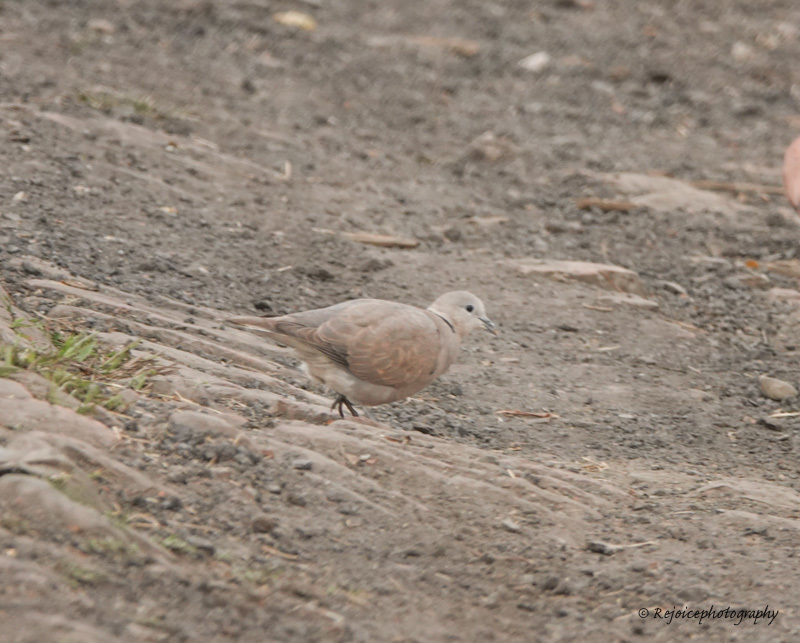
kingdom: Animalia
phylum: Chordata
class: Aves
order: Columbiformes
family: Columbidae
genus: Streptopelia
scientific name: Streptopelia tranquebarica
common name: Red turtle dove
